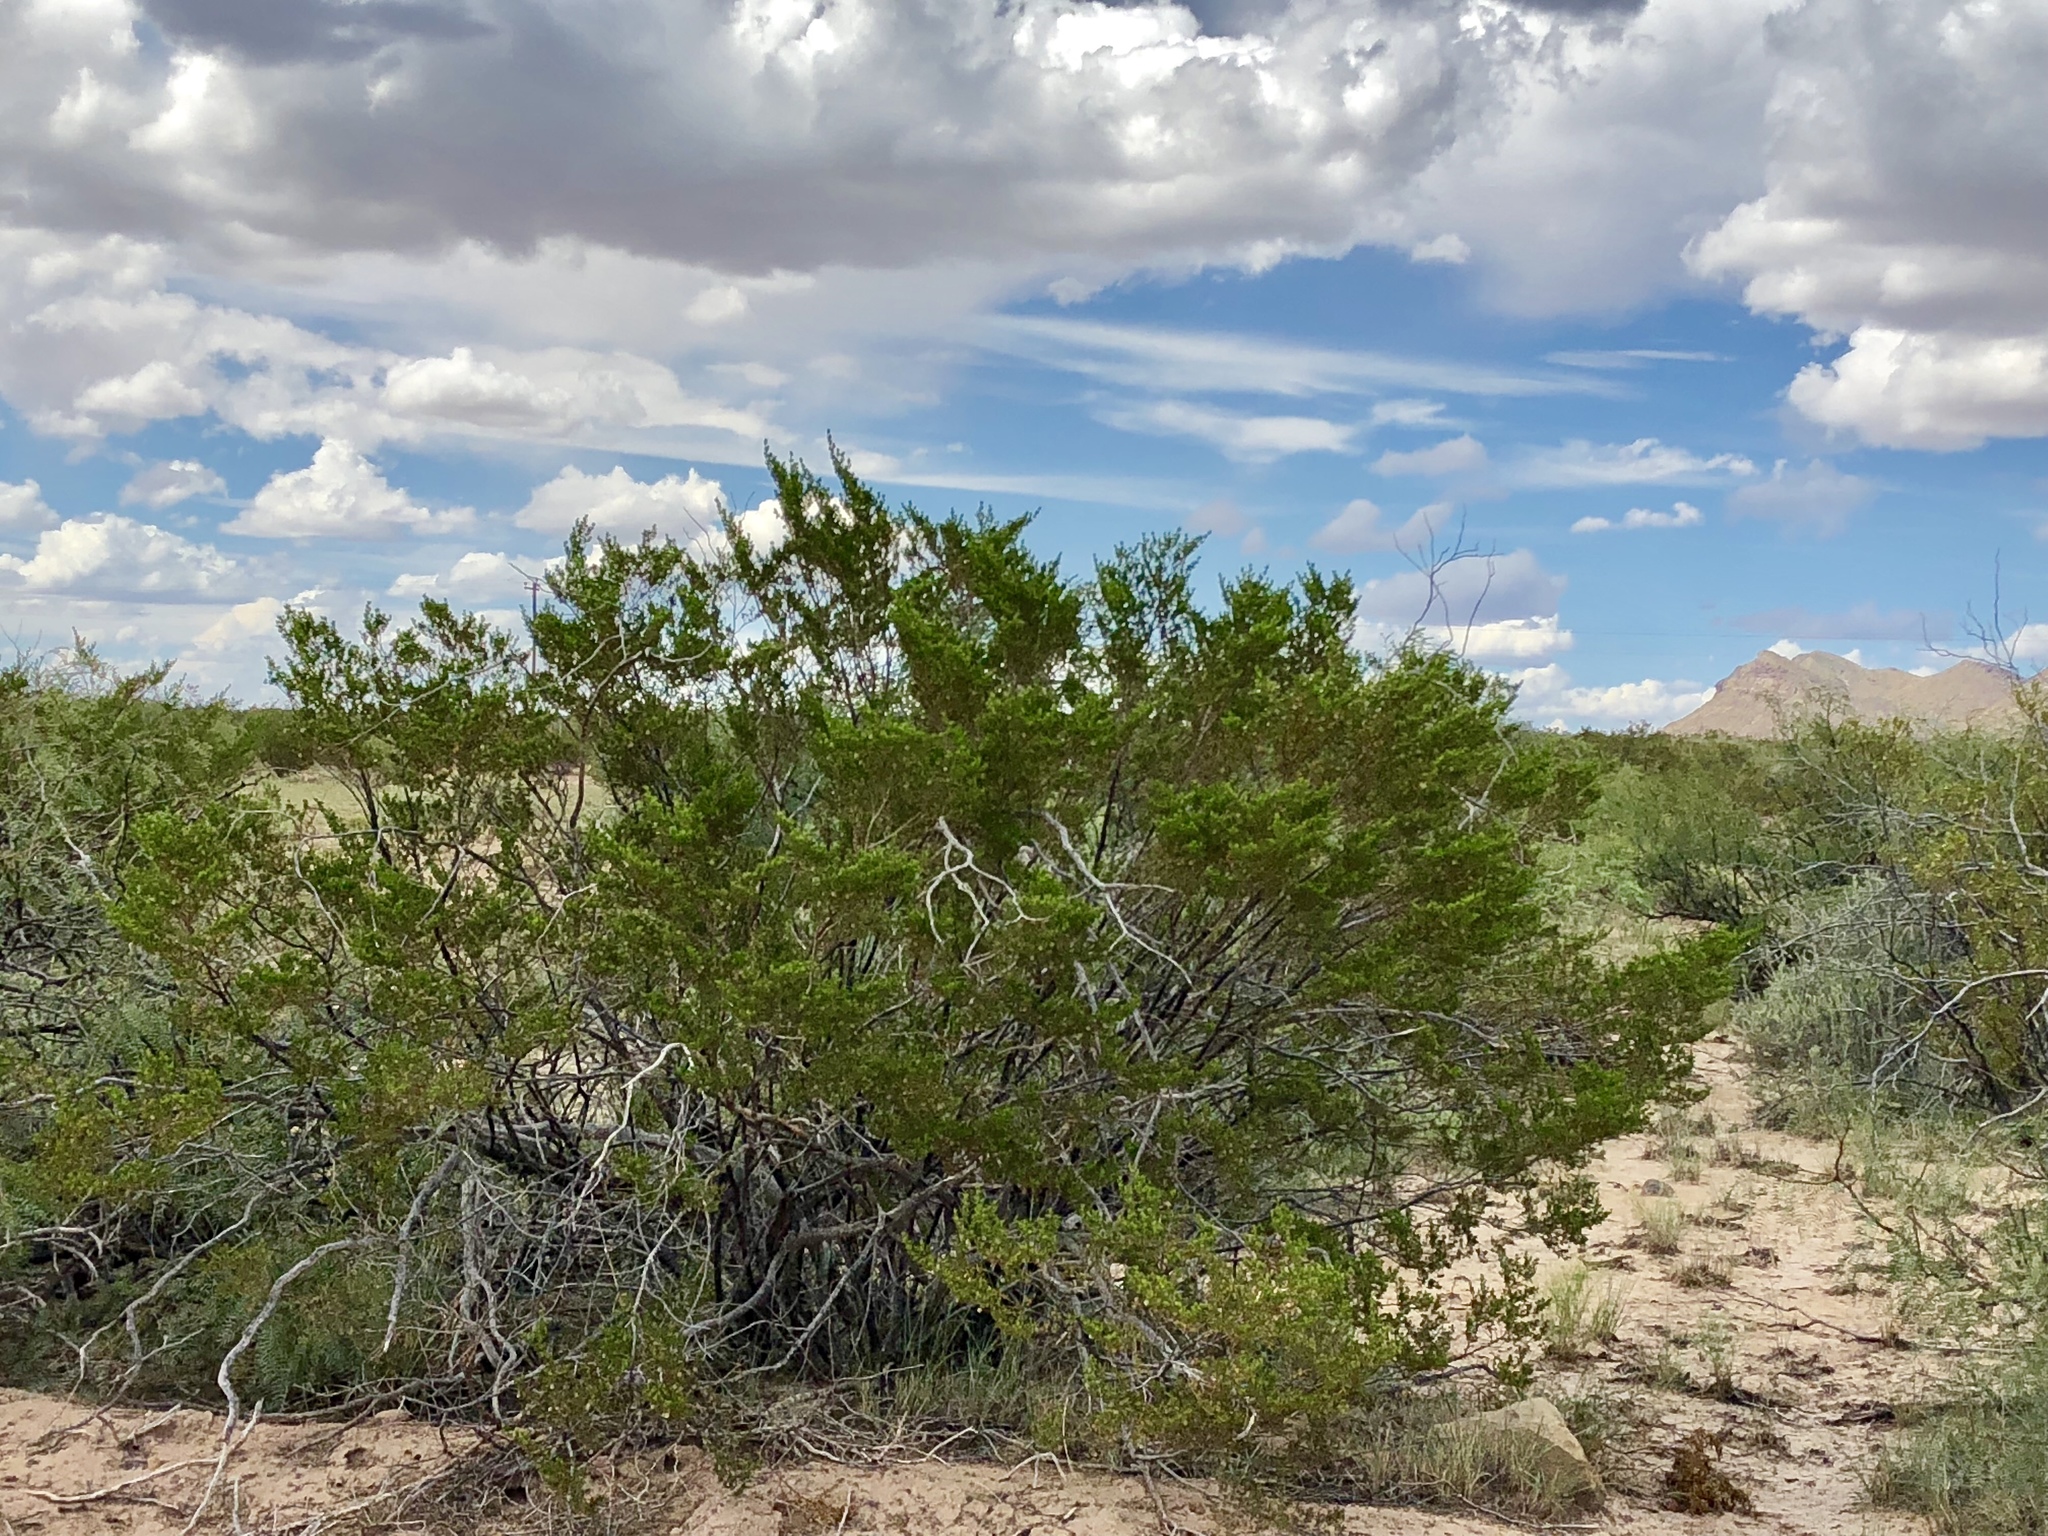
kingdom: Plantae
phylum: Tracheophyta
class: Magnoliopsida
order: Zygophyllales
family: Zygophyllaceae
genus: Larrea
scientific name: Larrea tridentata
